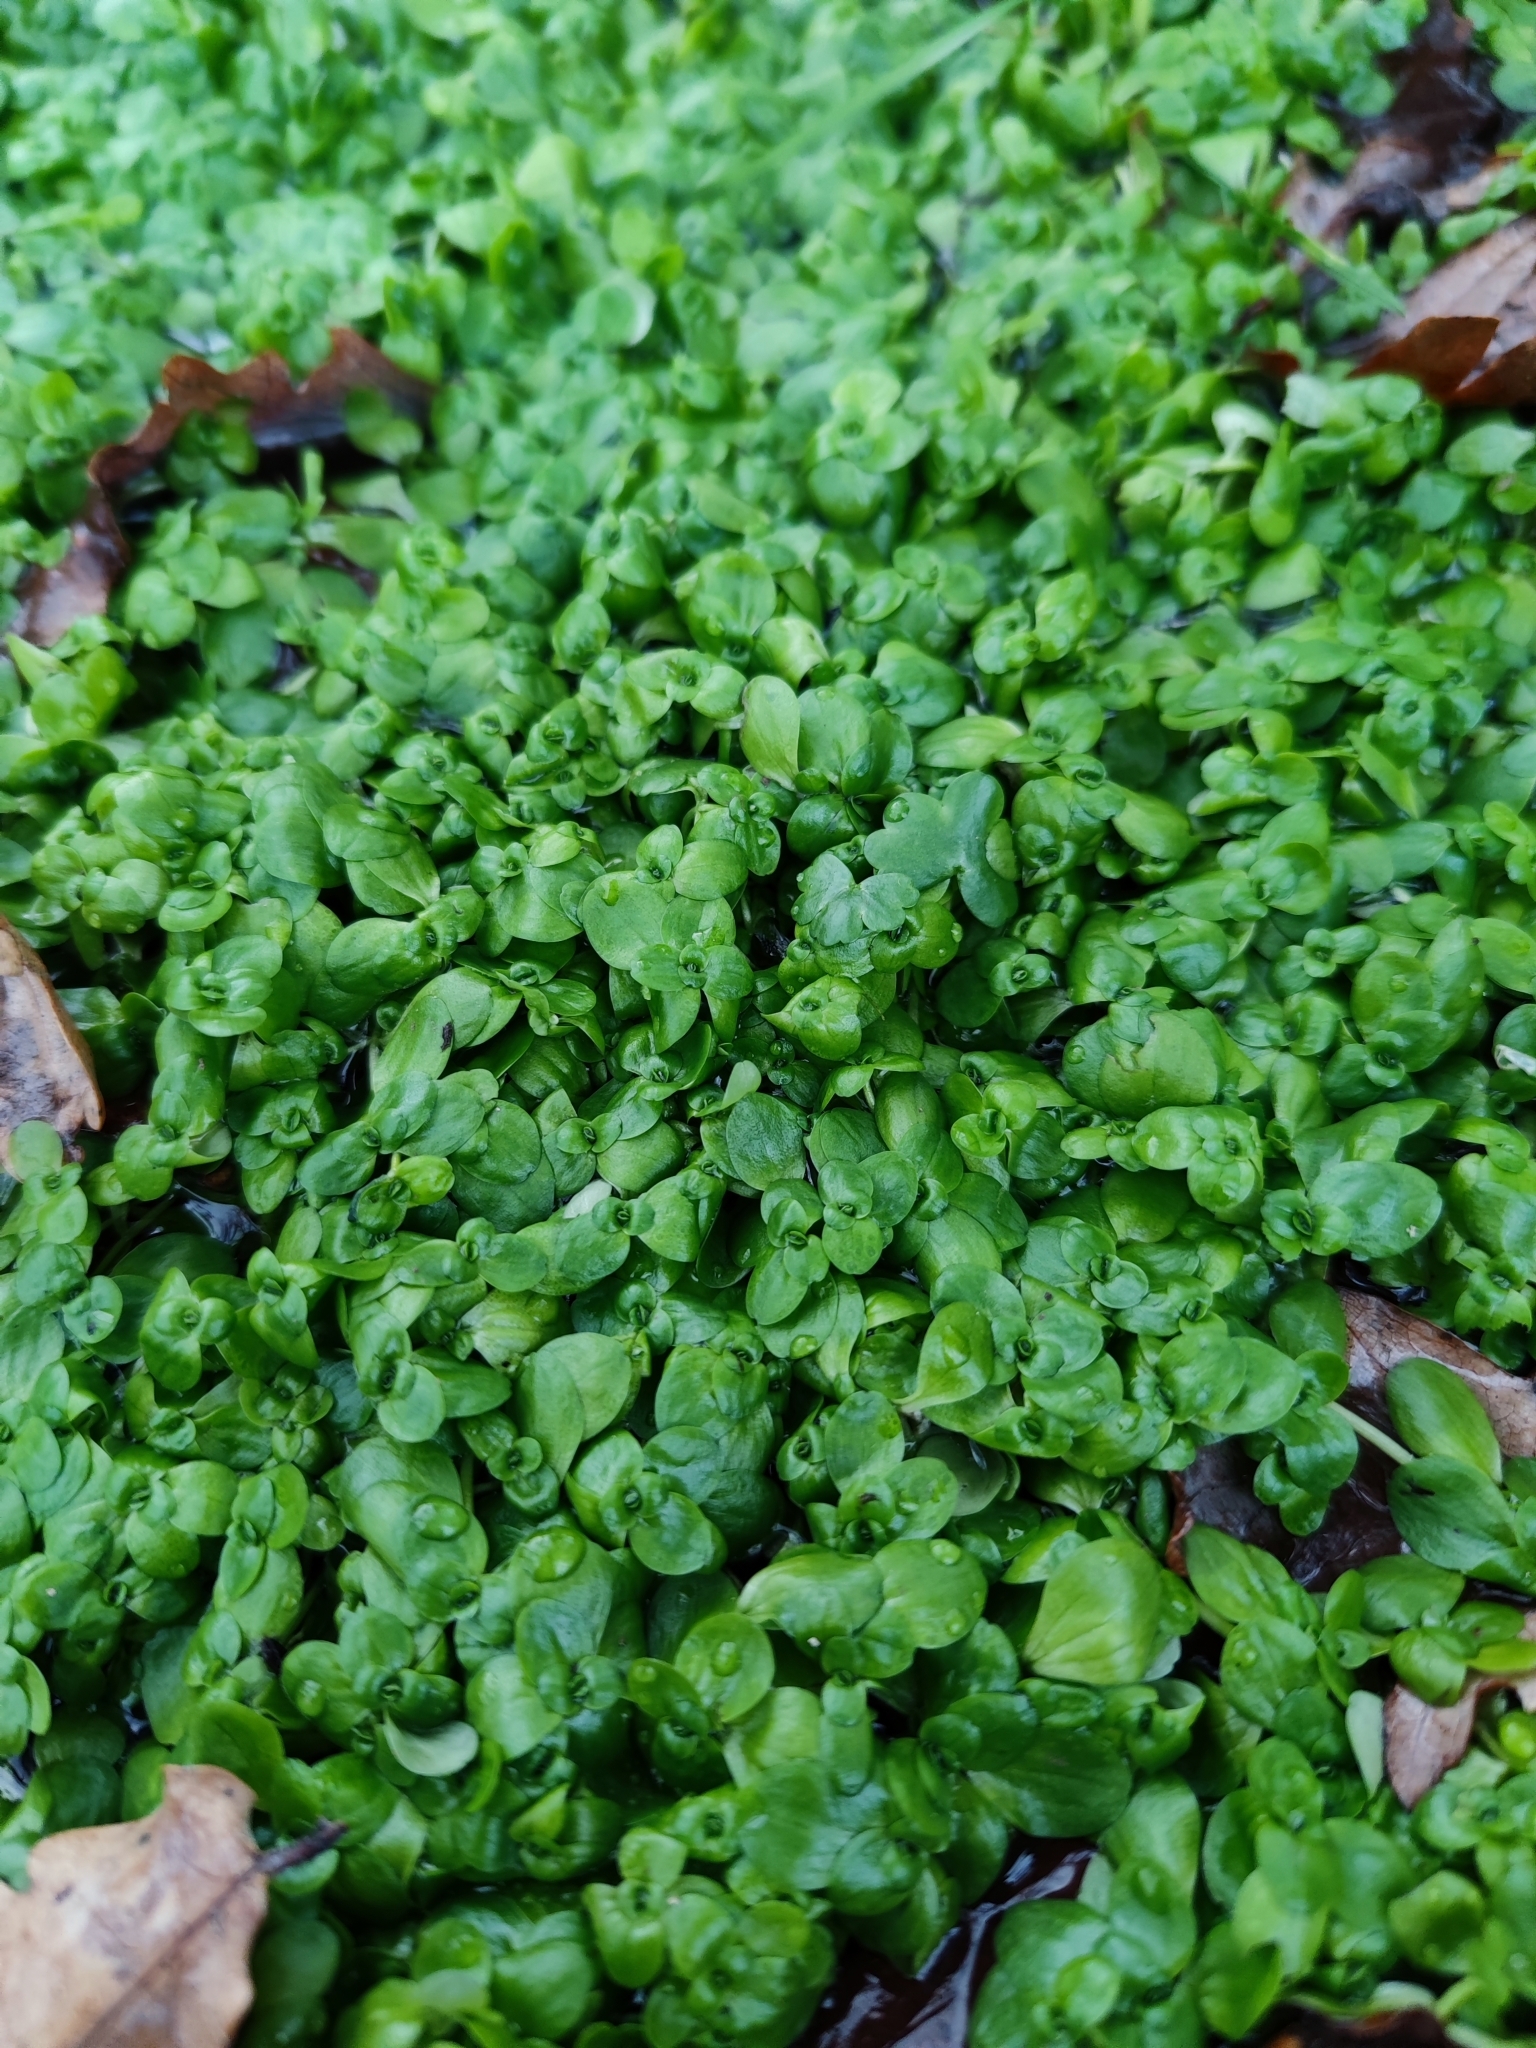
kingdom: Plantae
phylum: Tracheophyta
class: Magnoliopsida
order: Lamiales
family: Plantaginaceae
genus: Callitriche
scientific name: Callitriche stagnalis
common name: Common water-starwort
